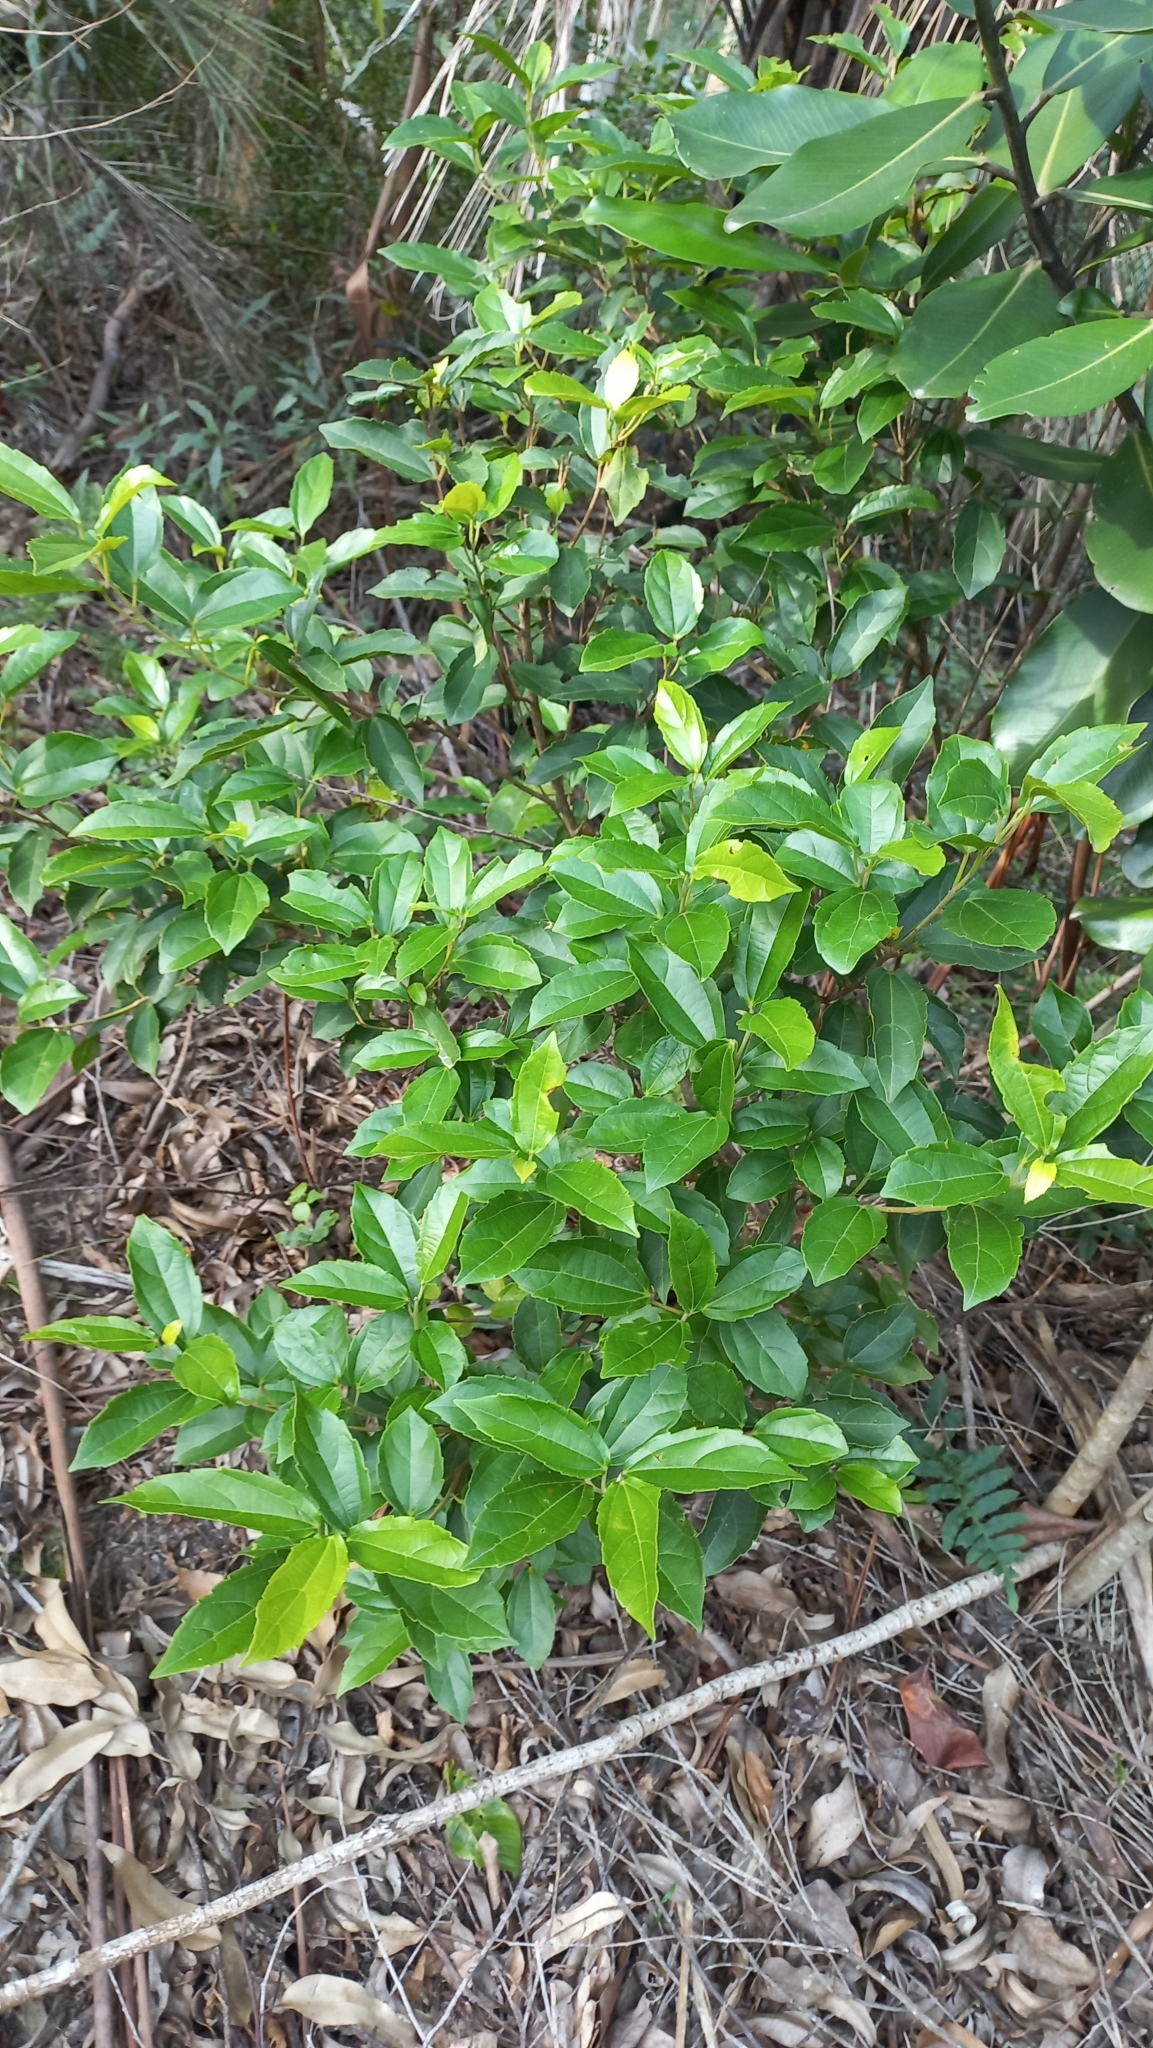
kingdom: Plantae
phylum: Tracheophyta
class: Magnoliopsida
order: Malpighiales
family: Euphorbiaceae
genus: Alchornea
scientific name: Alchornea triplinervia
